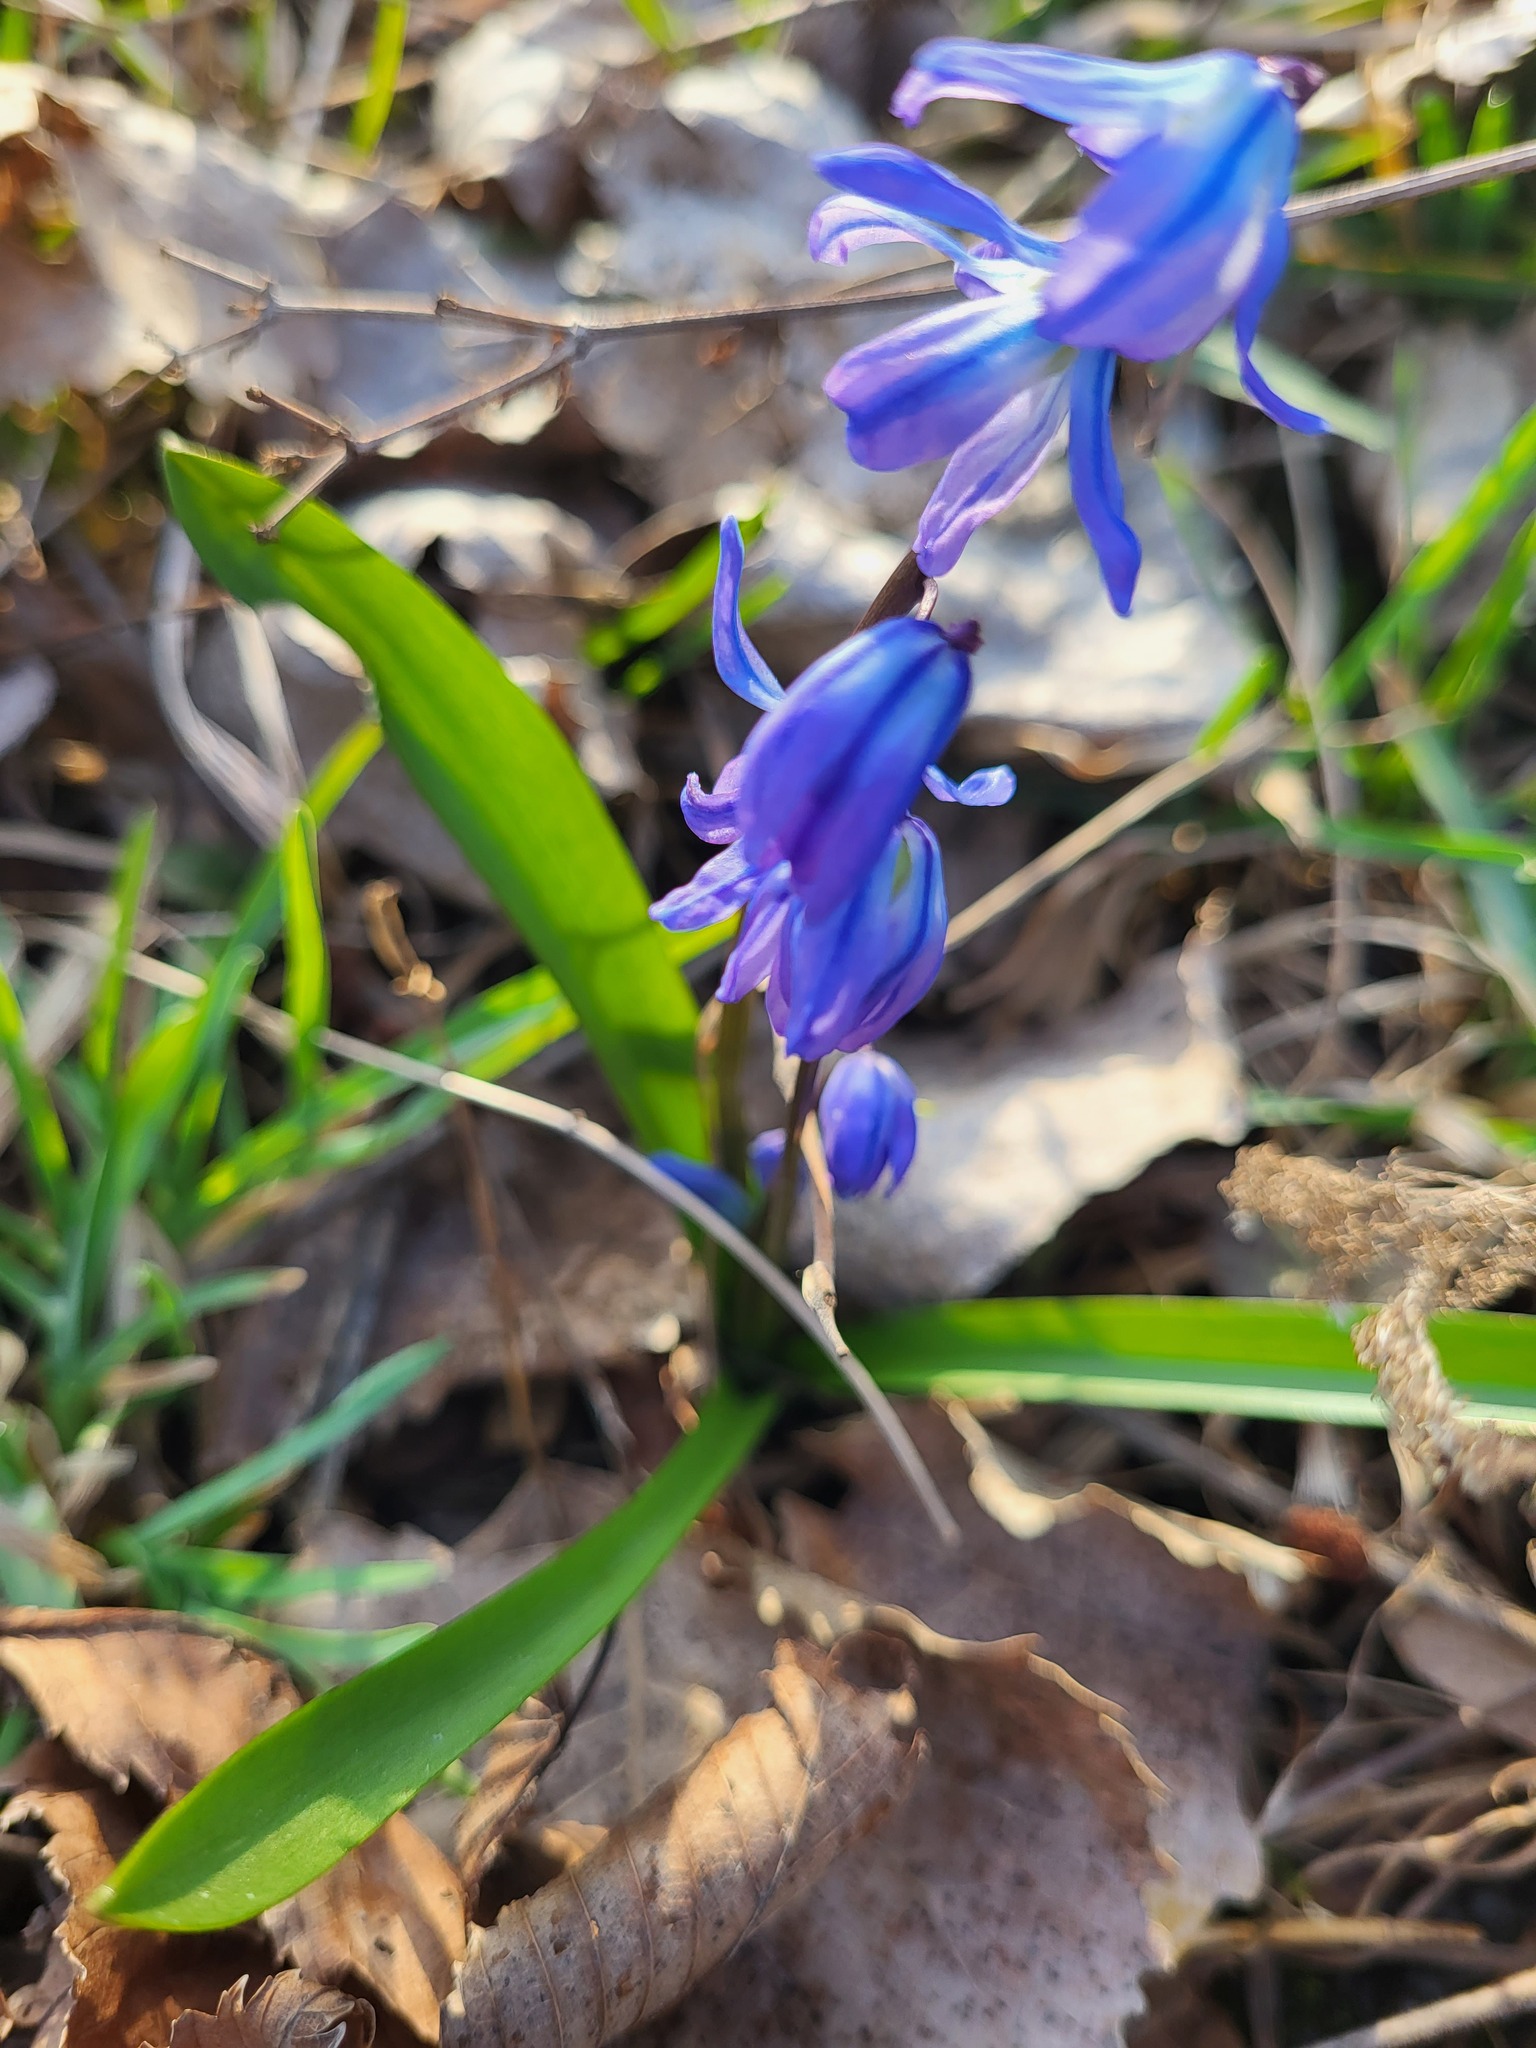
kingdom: Plantae
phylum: Tracheophyta
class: Liliopsida
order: Asparagales
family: Asparagaceae
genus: Scilla
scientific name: Scilla siberica
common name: Siberian squill
